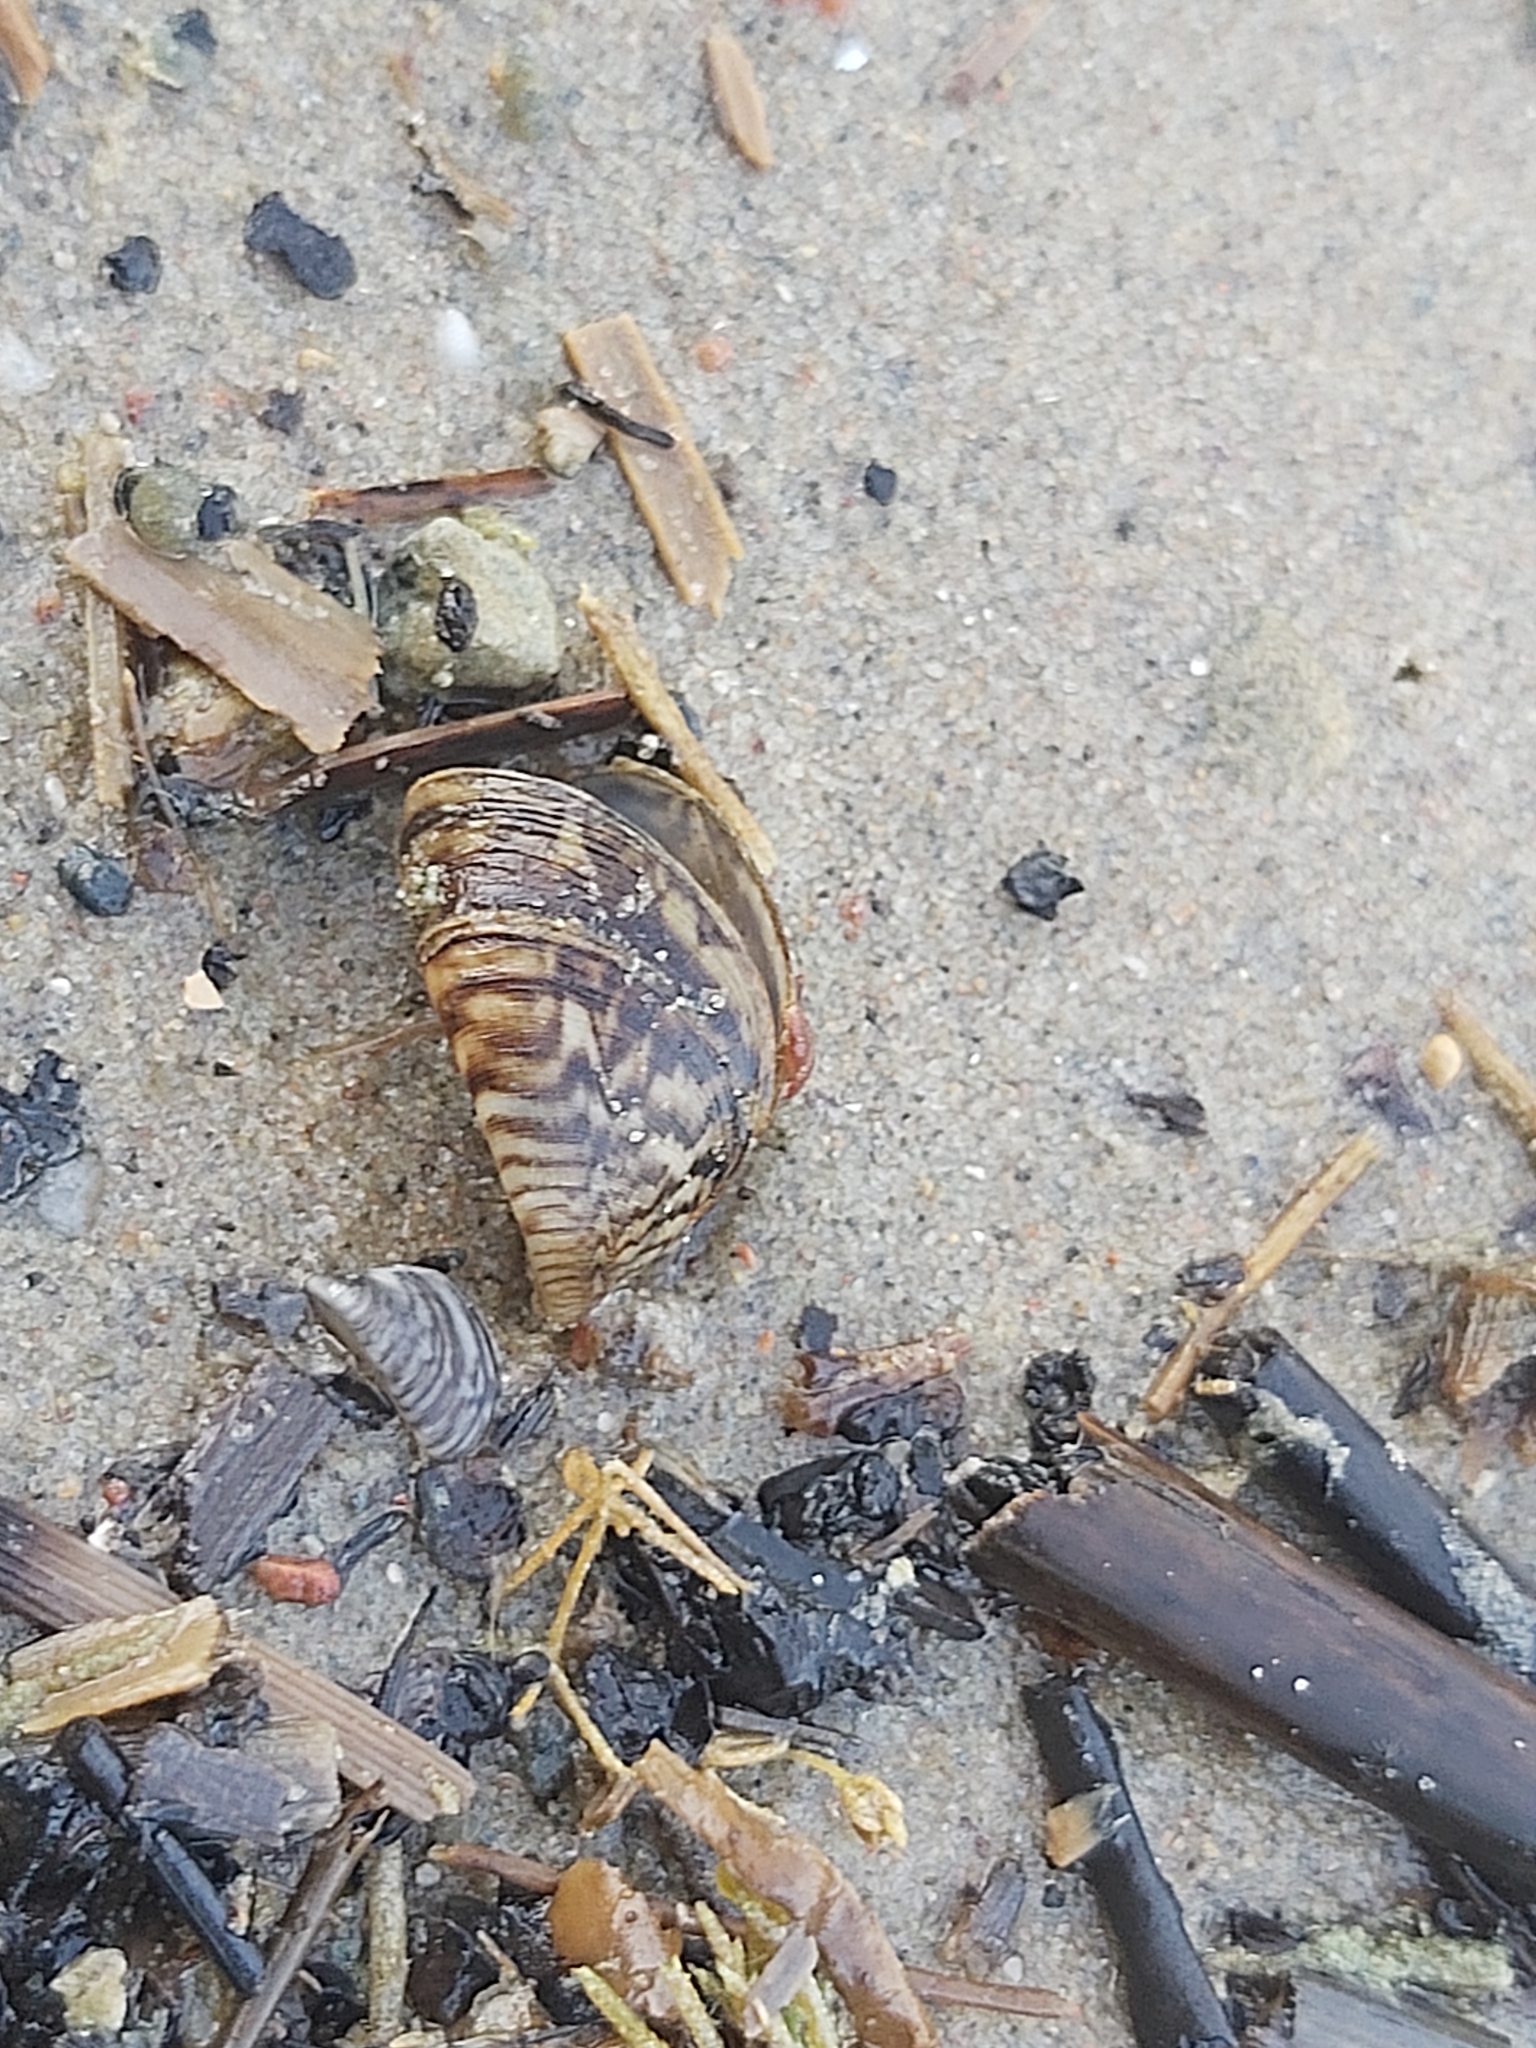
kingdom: Animalia
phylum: Mollusca
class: Bivalvia
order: Myida
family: Dreissenidae
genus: Dreissena
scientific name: Dreissena polymorpha
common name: Zebra mussel
